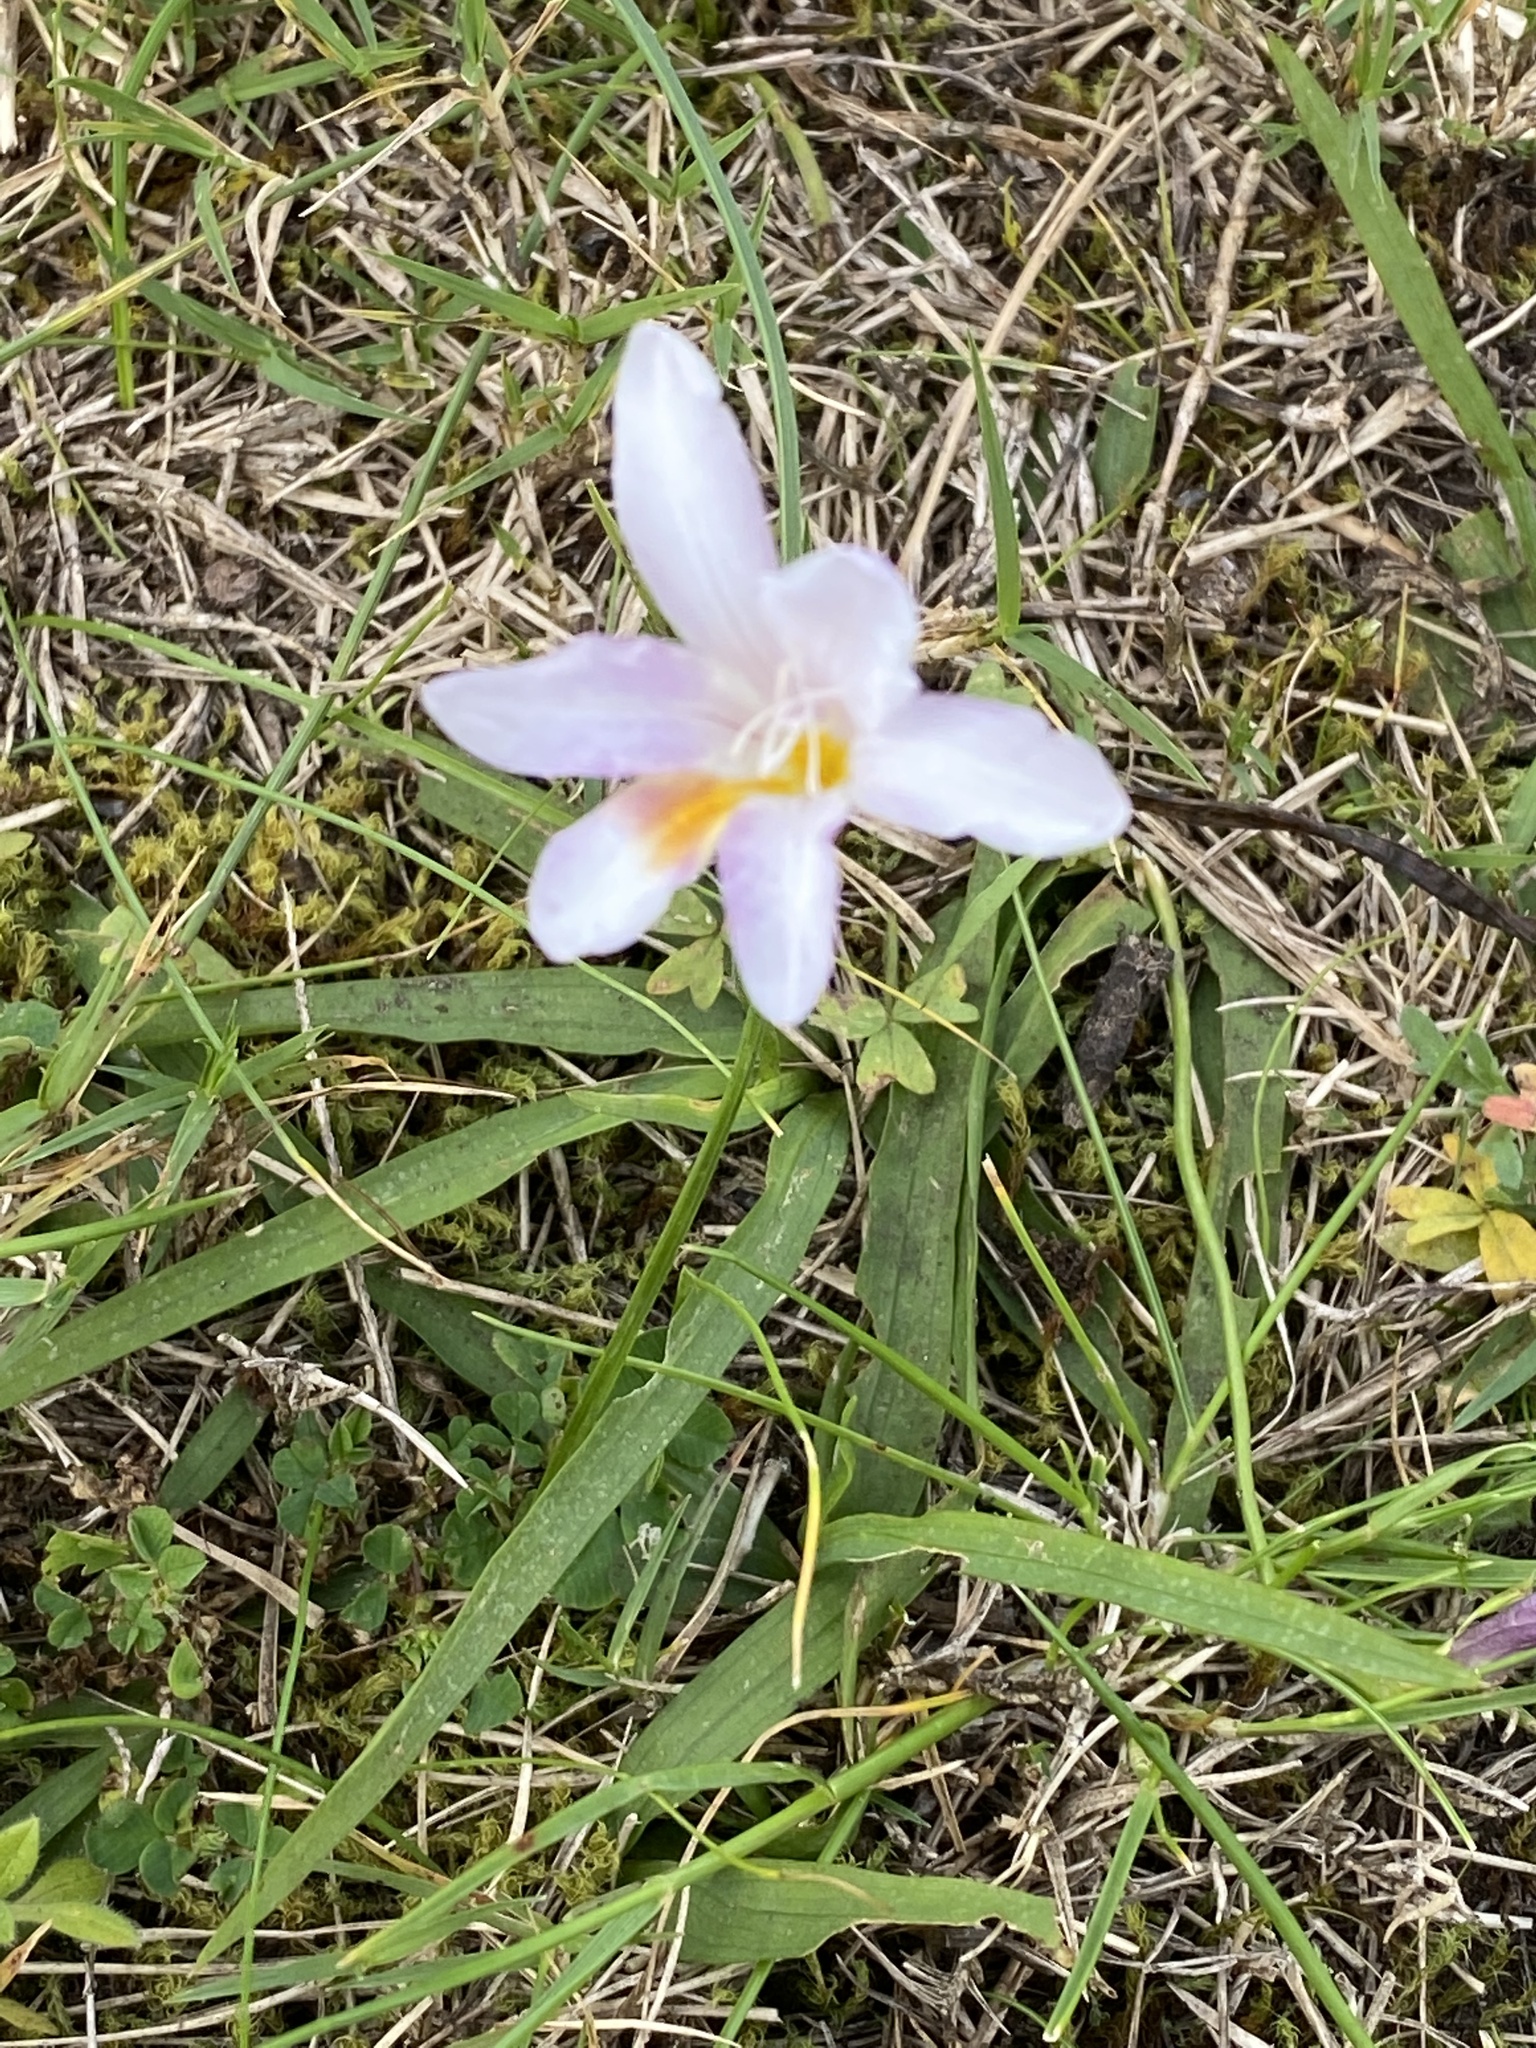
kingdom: Plantae
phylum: Tracheophyta
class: Liliopsida
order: Asparagales
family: Iridaceae
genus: Freesia
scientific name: Freesia caryophyllacea
